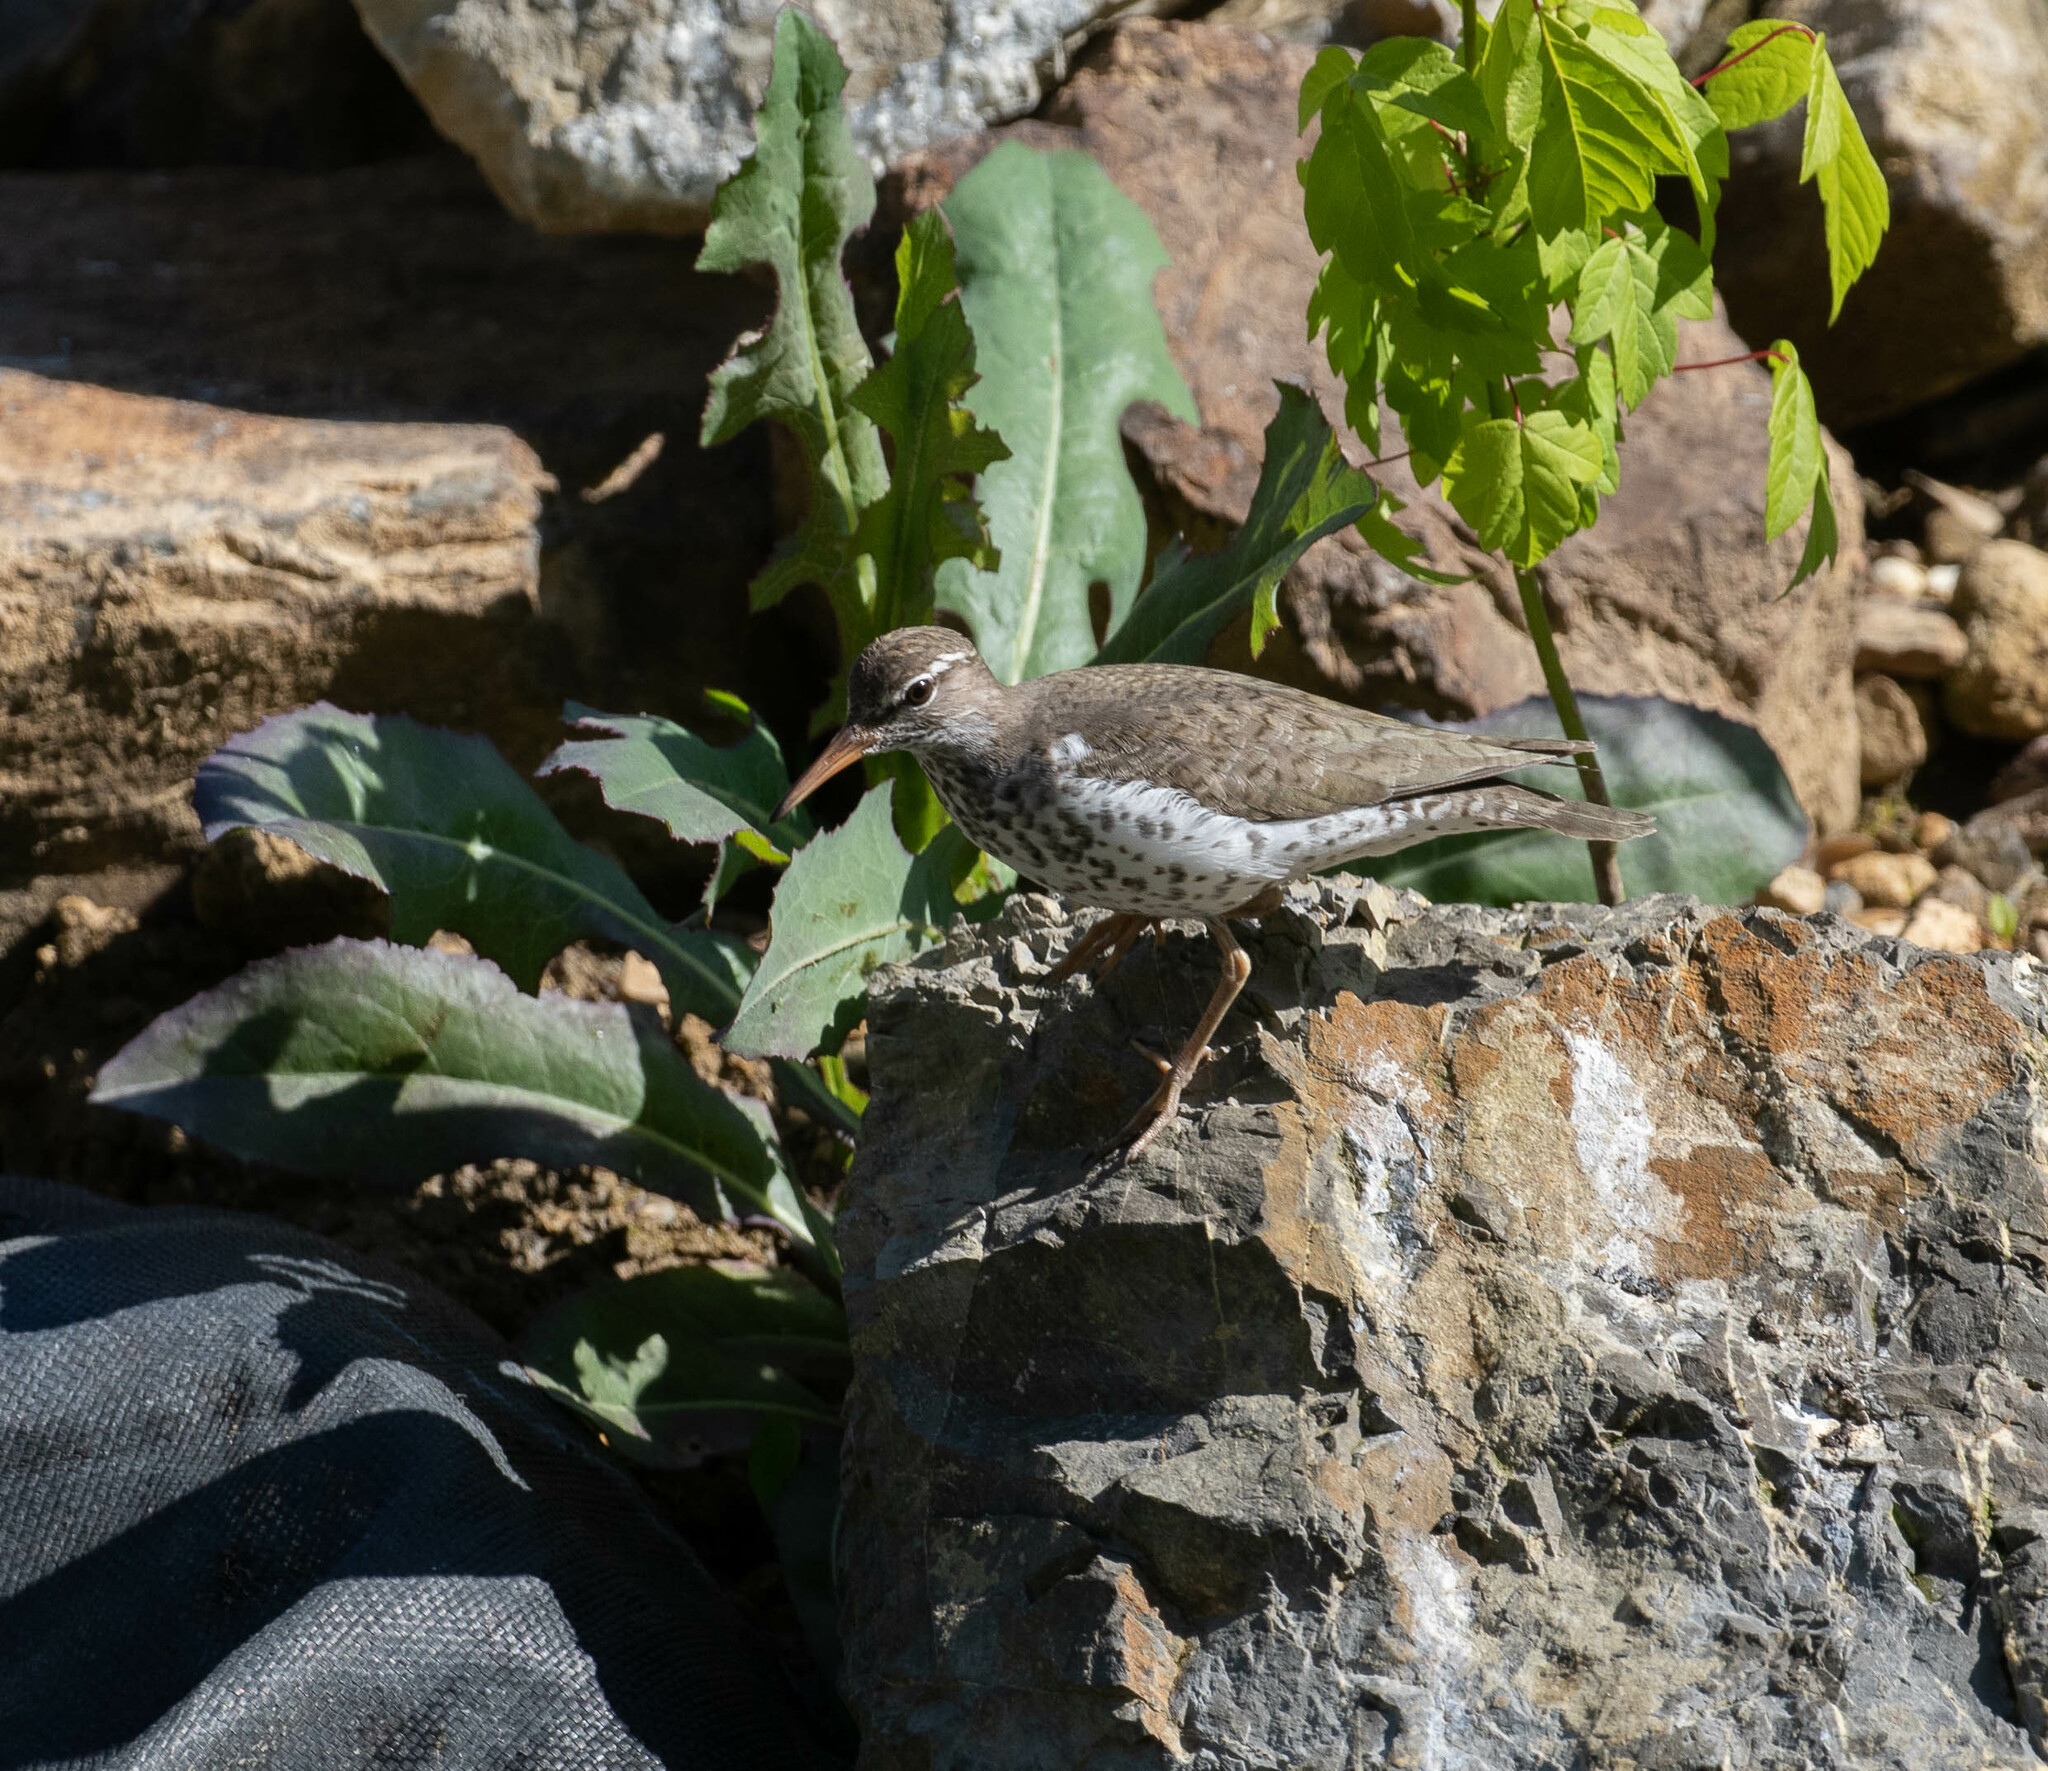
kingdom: Animalia
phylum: Chordata
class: Aves
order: Charadriiformes
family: Scolopacidae
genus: Actitis
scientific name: Actitis macularius
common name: Spotted sandpiper
